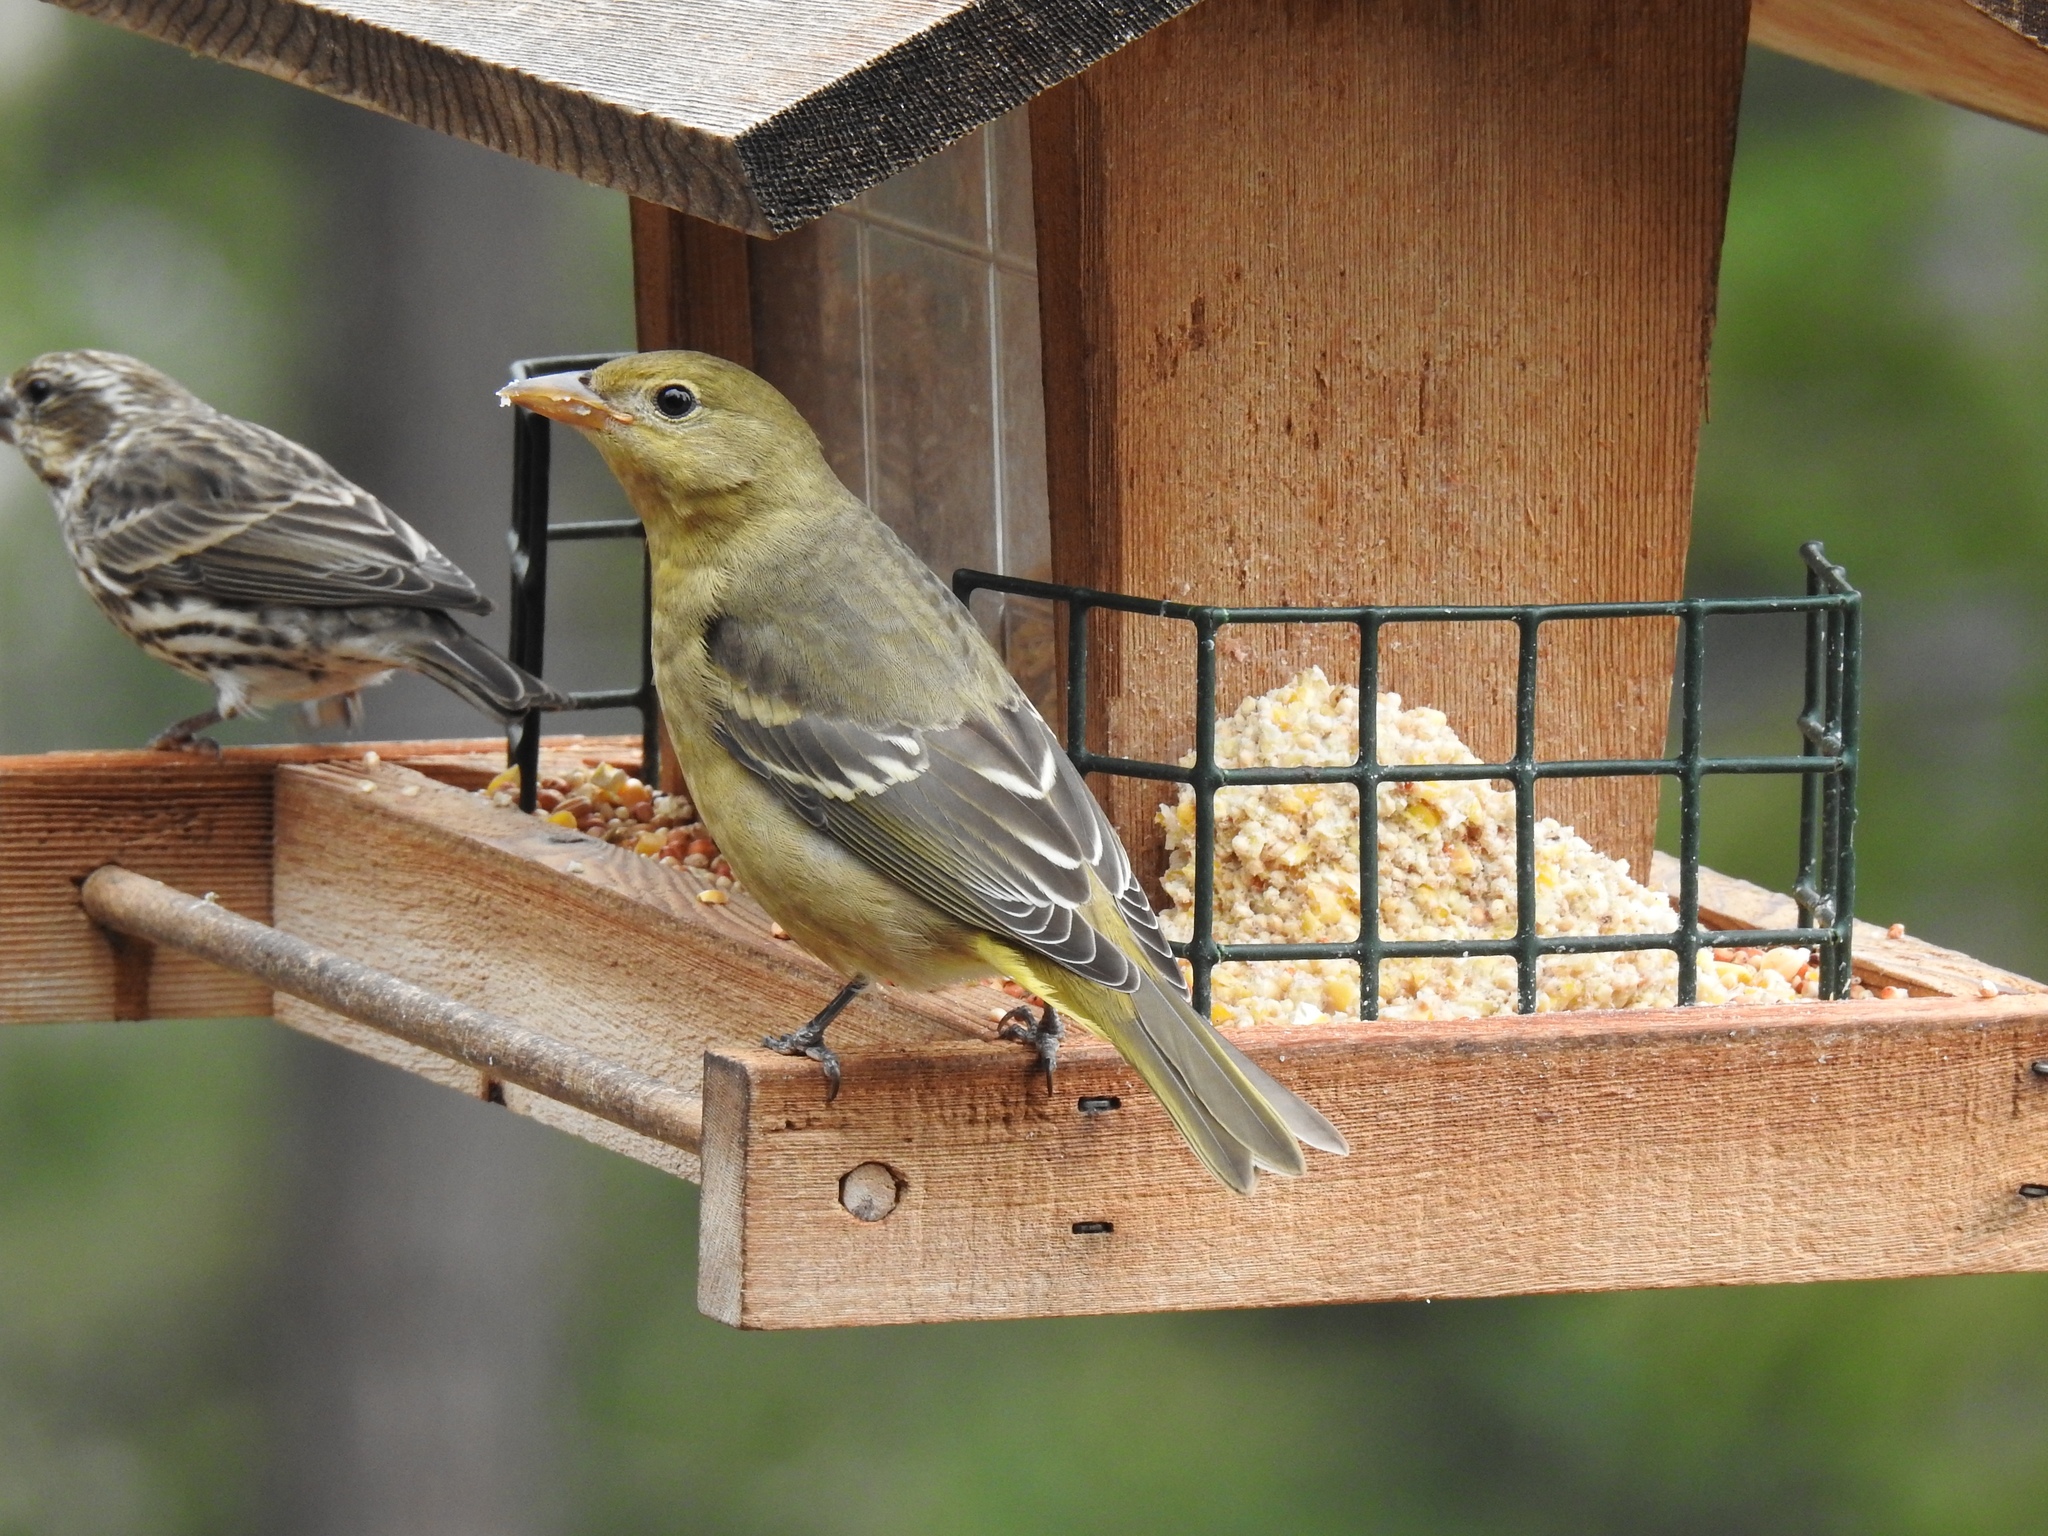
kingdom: Animalia
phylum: Chordata
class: Aves
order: Passeriformes
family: Cardinalidae
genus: Piranga
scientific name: Piranga ludoviciana
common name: Western tanager
